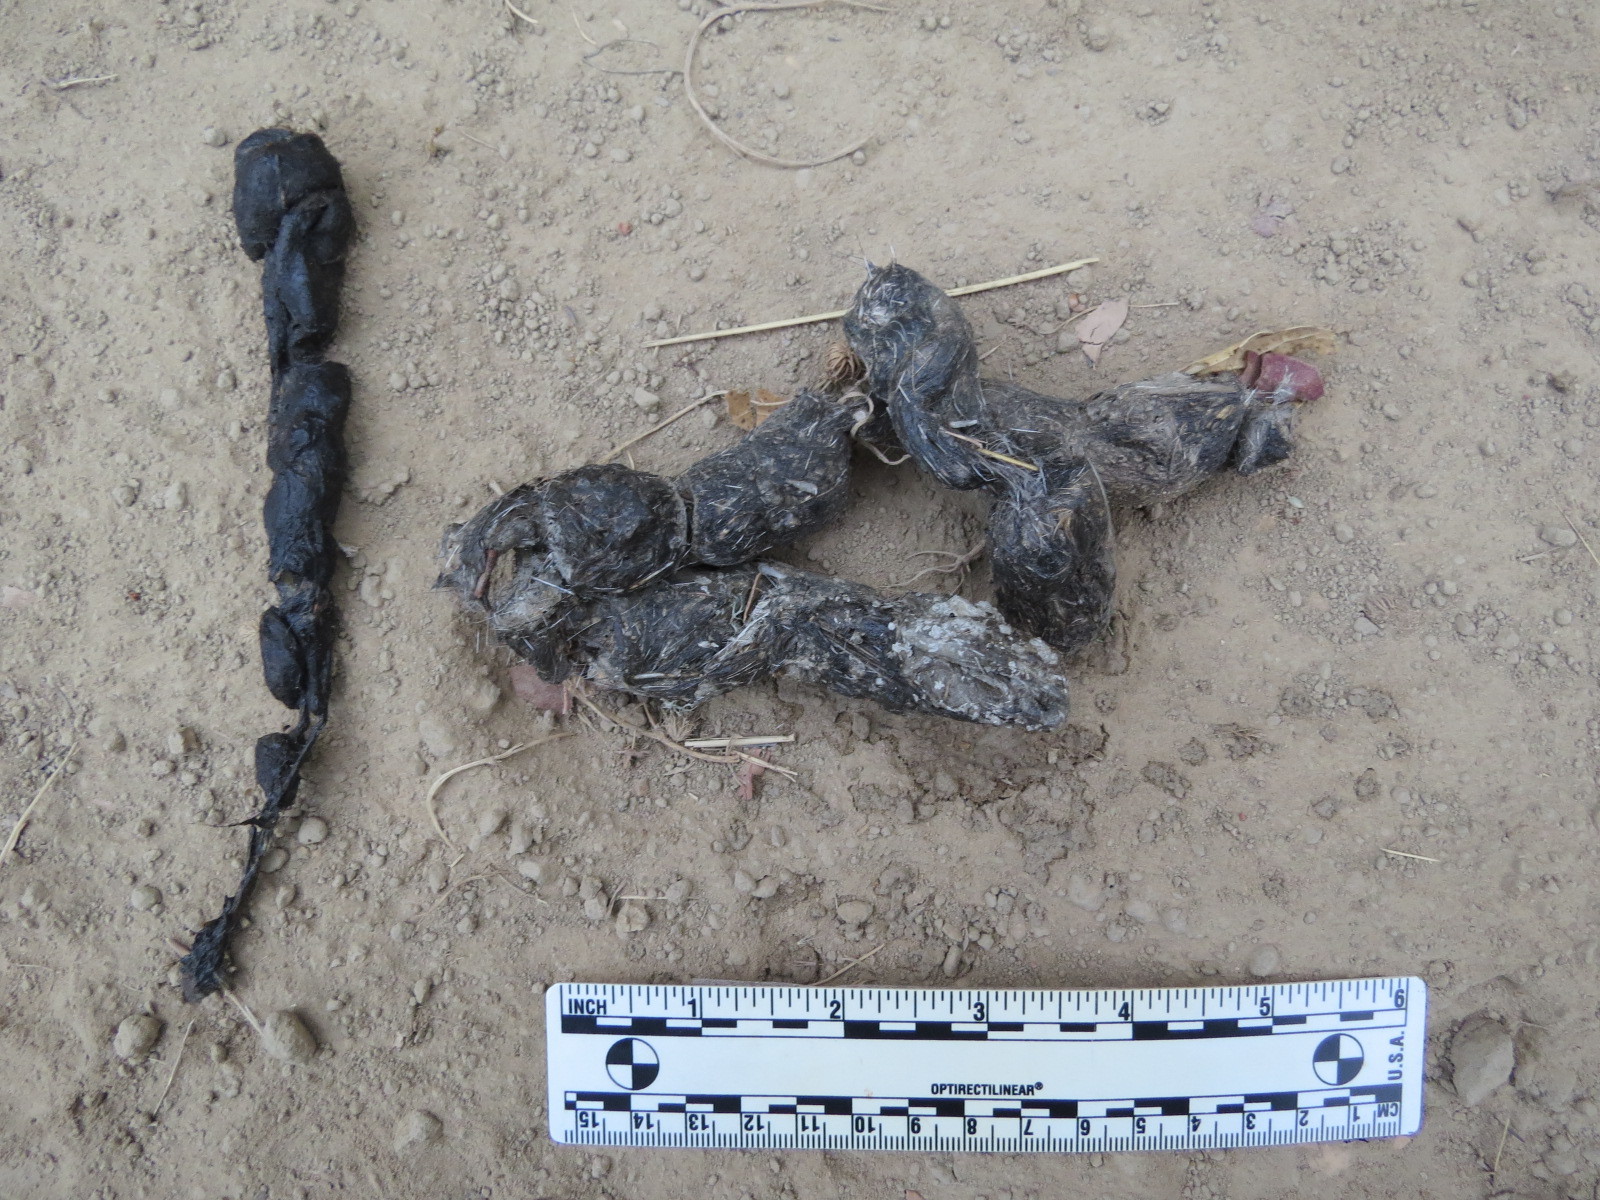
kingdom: Animalia
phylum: Chordata
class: Mammalia
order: Carnivora
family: Canidae
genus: Urocyon
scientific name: Urocyon cinereoargenteus
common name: Gray fox
